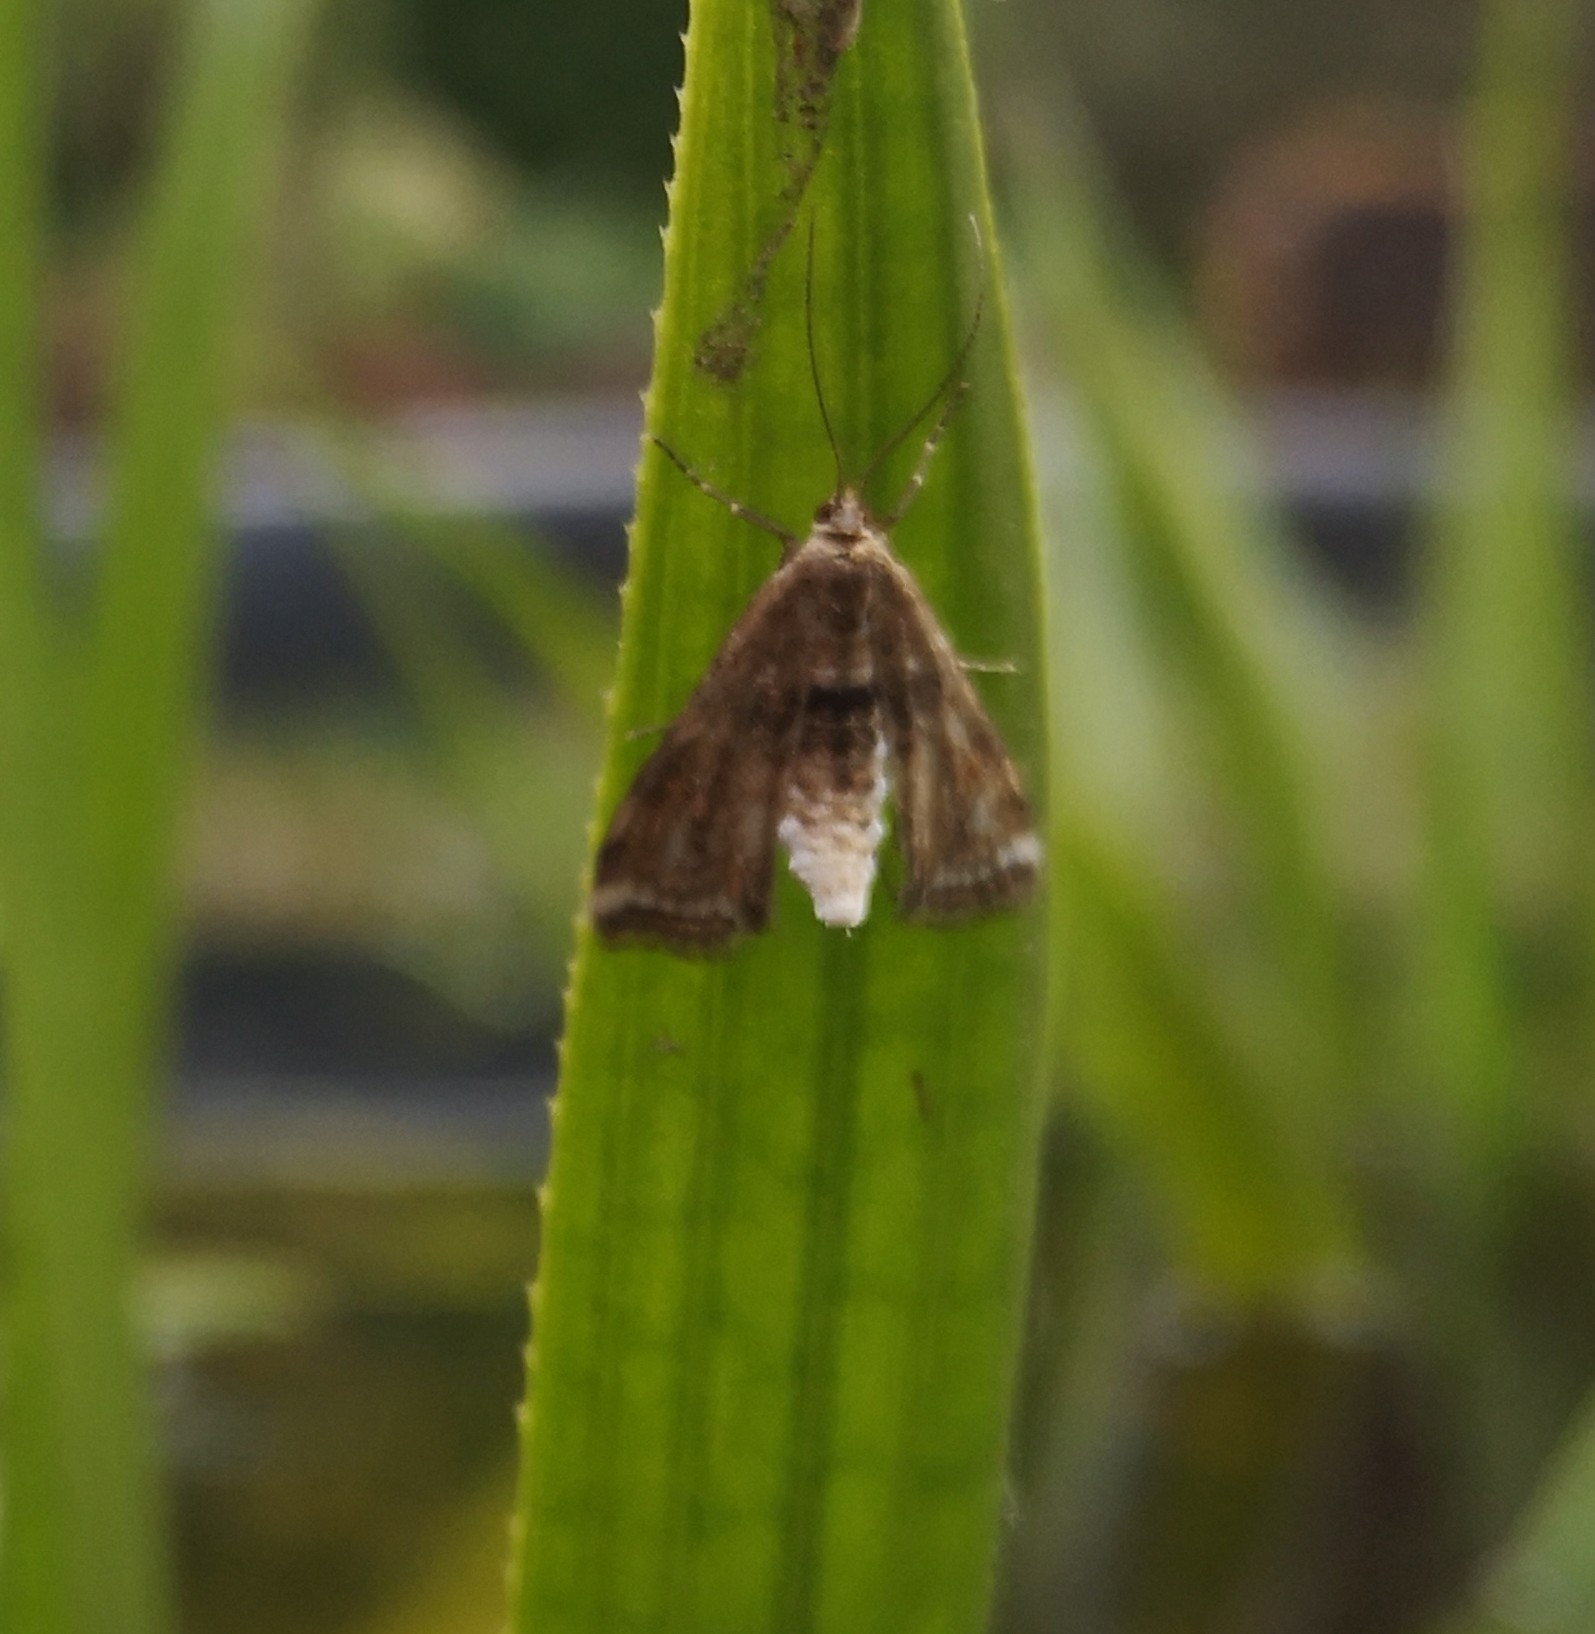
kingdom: Animalia
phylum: Arthropoda
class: Insecta
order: Lepidoptera
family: Crambidae
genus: Cataclysta
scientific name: Cataclysta lemnata
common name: Small china-mark
